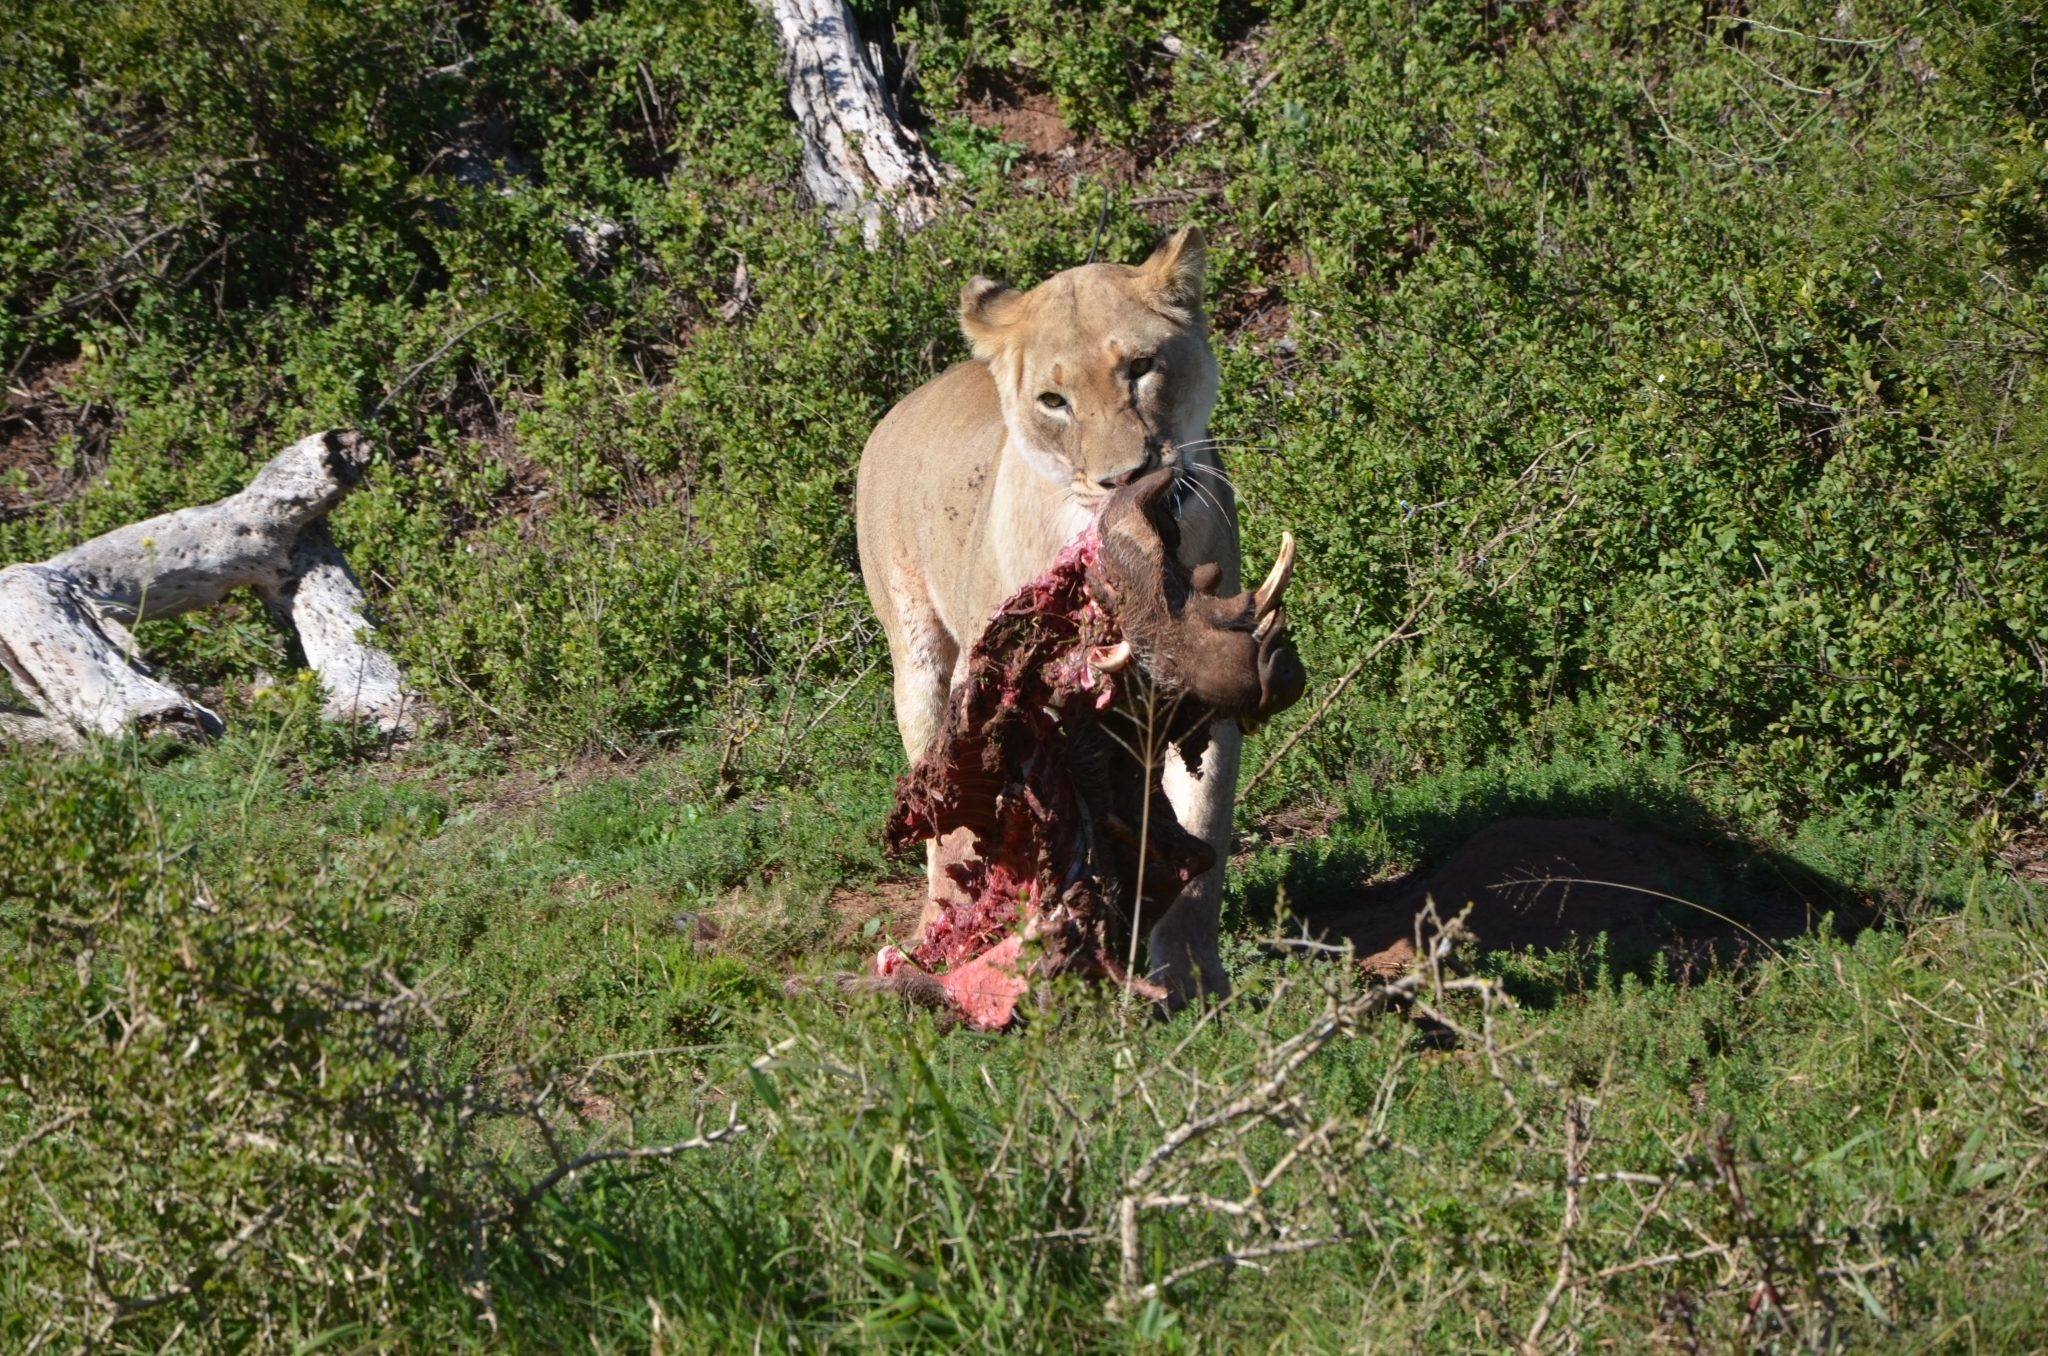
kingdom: Animalia
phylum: Chordata
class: Mammalia
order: Carnivora
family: Felidae
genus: Panthera
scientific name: Panthera leo
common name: Lion
